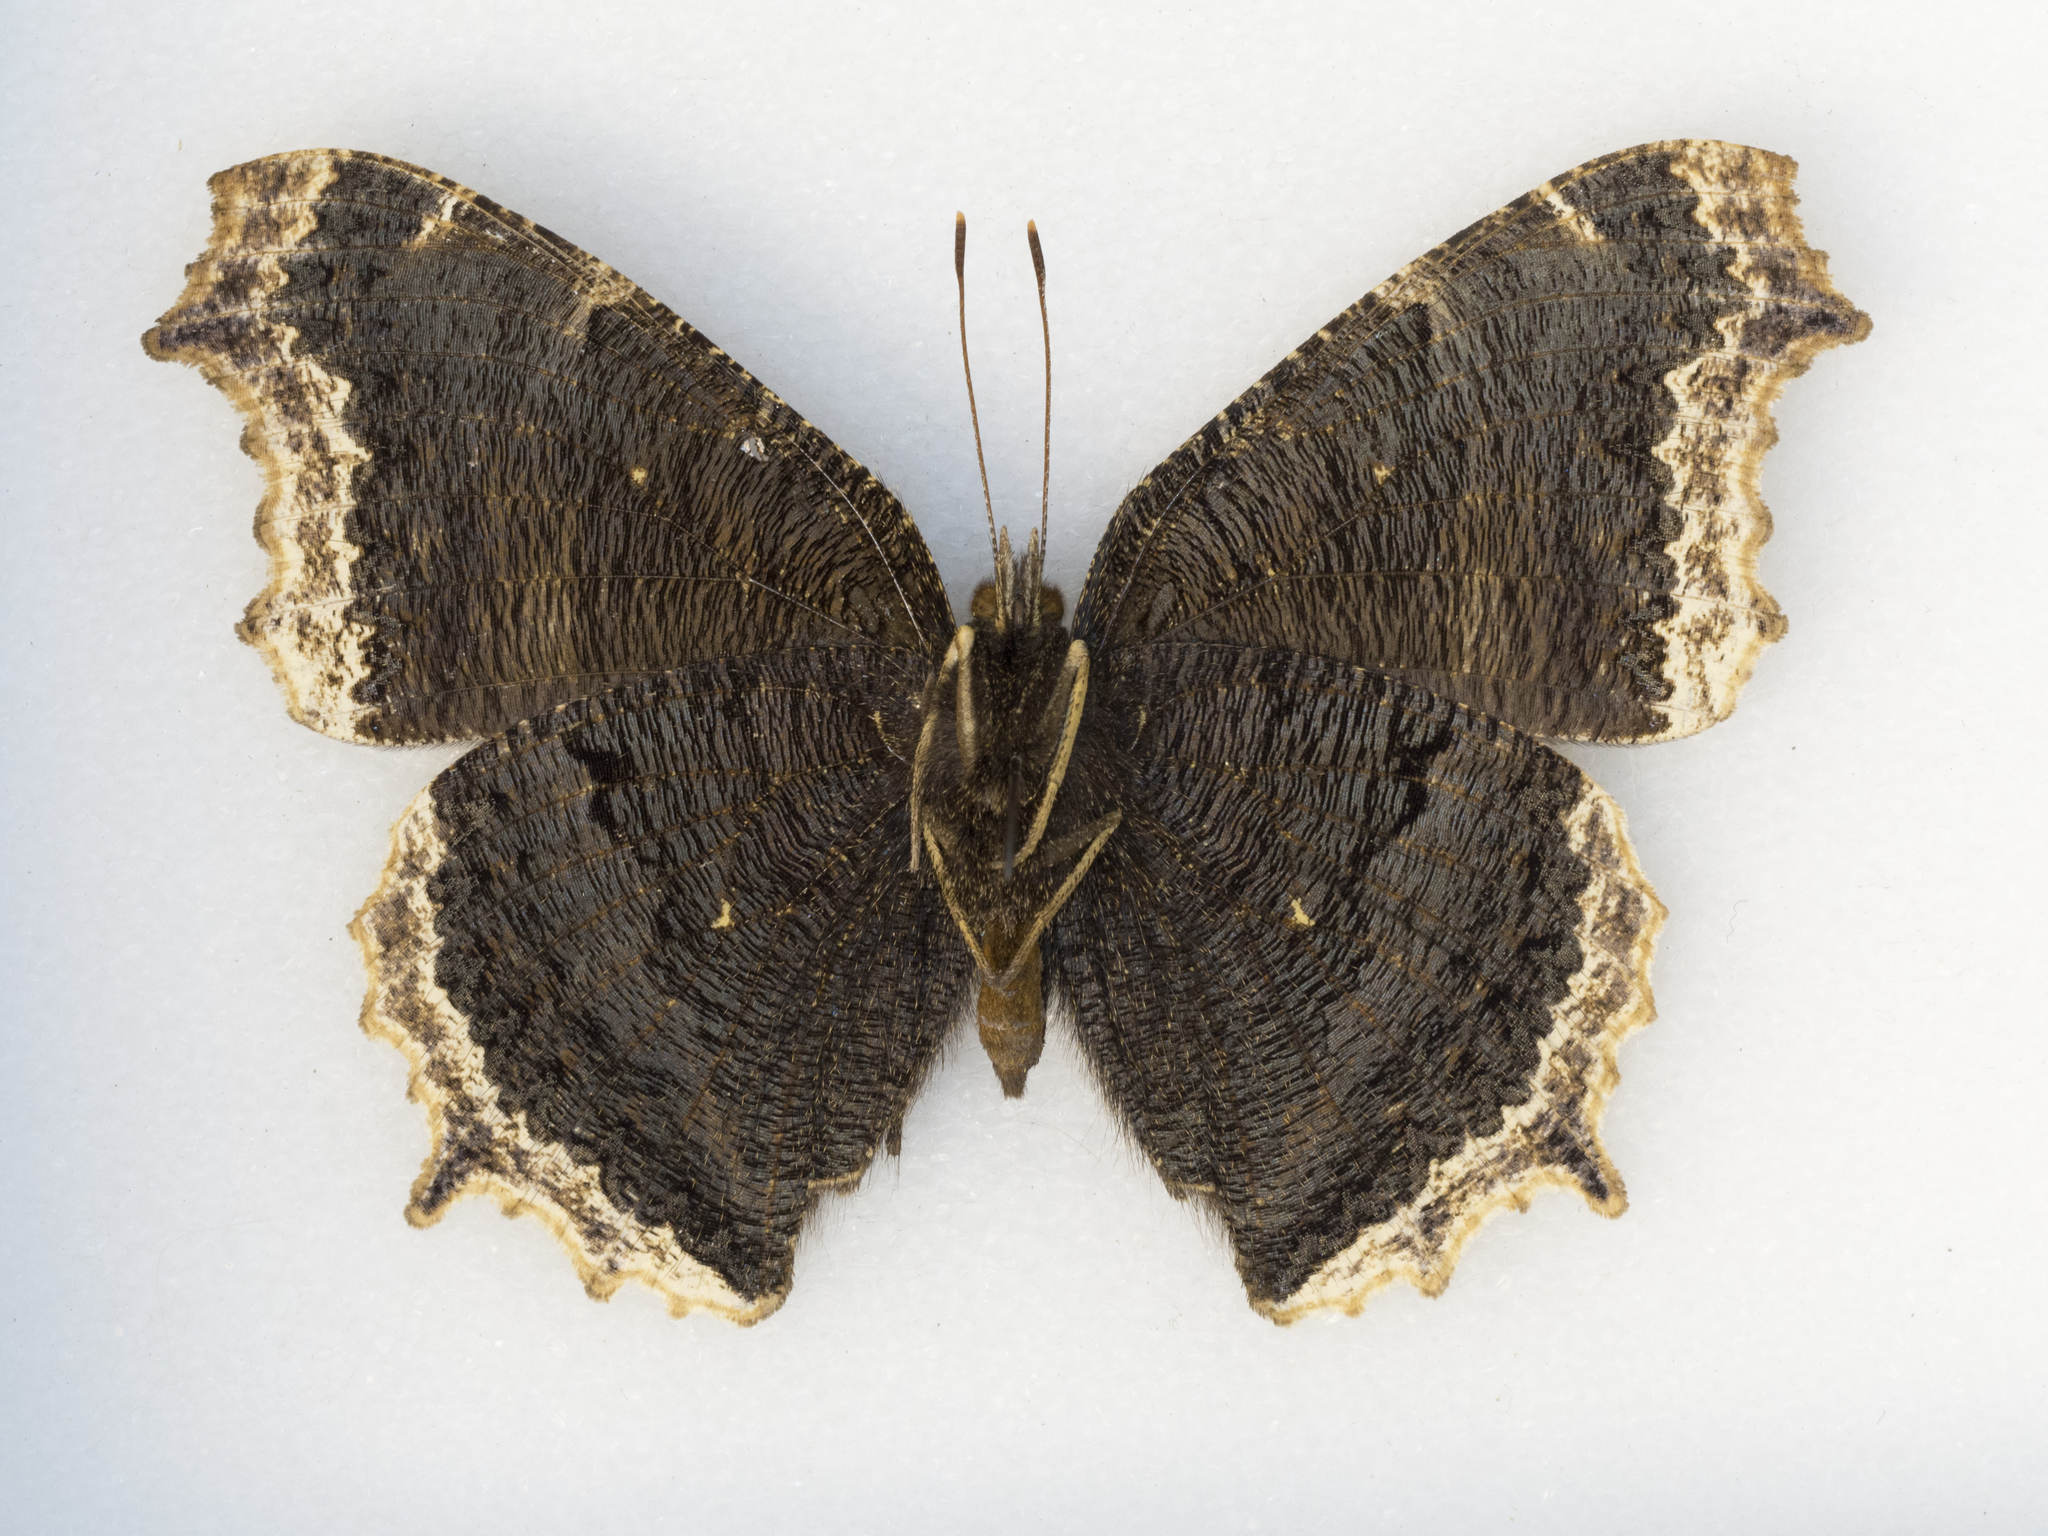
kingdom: Animalia
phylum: Arthropoda
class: Insecta
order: Lepidoptera
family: Nymphalidae
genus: Nymphalis
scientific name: Nymphalis antiopa
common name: Camberwell beauty
